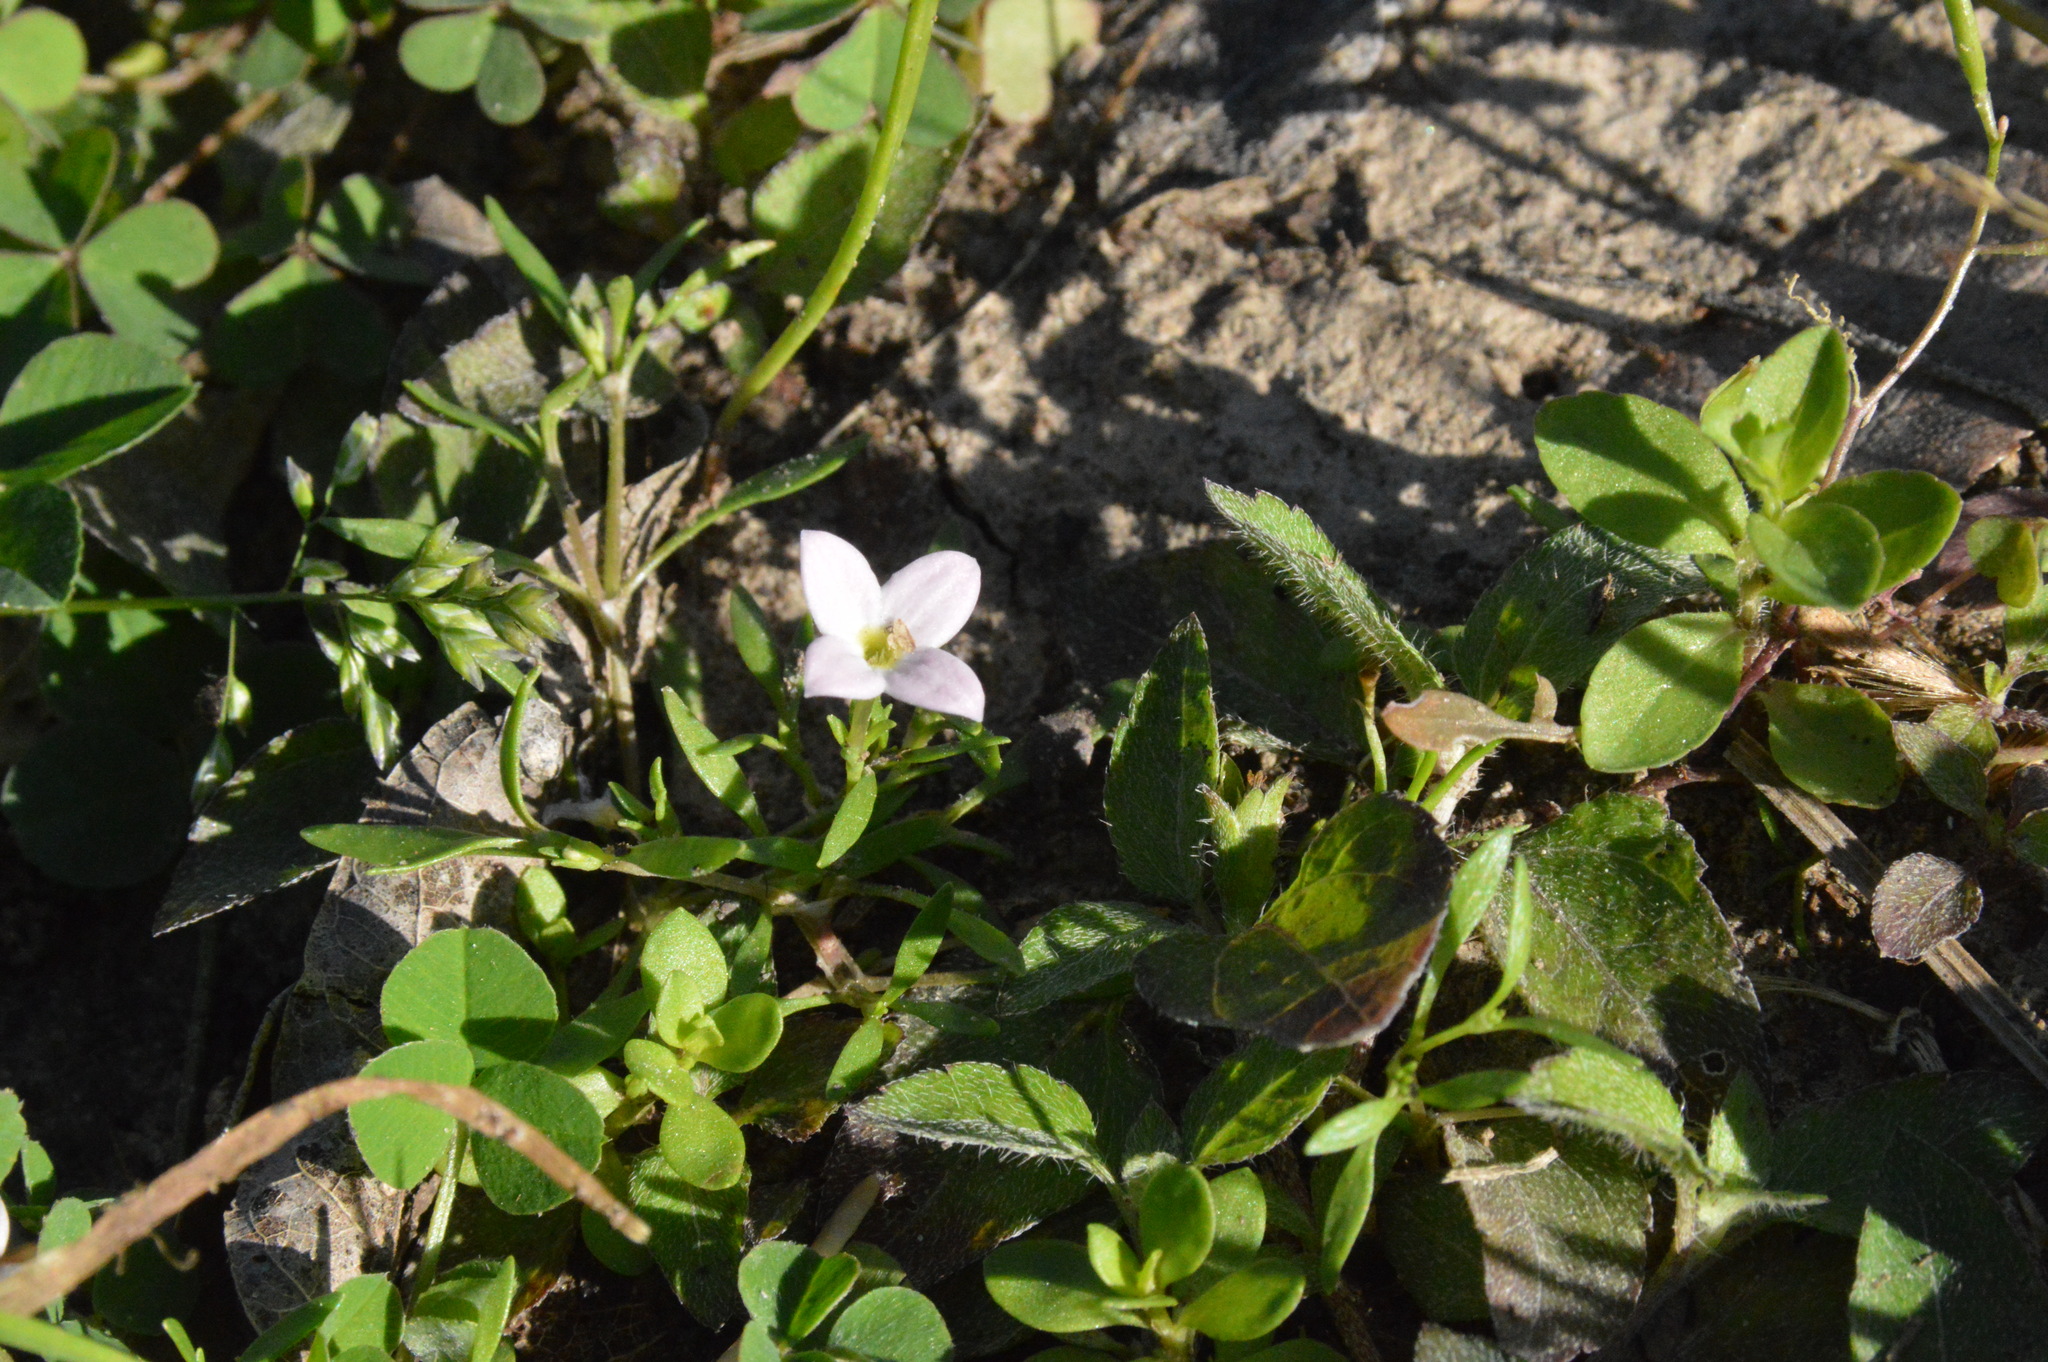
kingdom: Plantae
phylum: Tracheophyta
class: Magnoliopsida
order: Gentianales
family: Rubiaceae
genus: Houstonia
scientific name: Houstonia rosea
